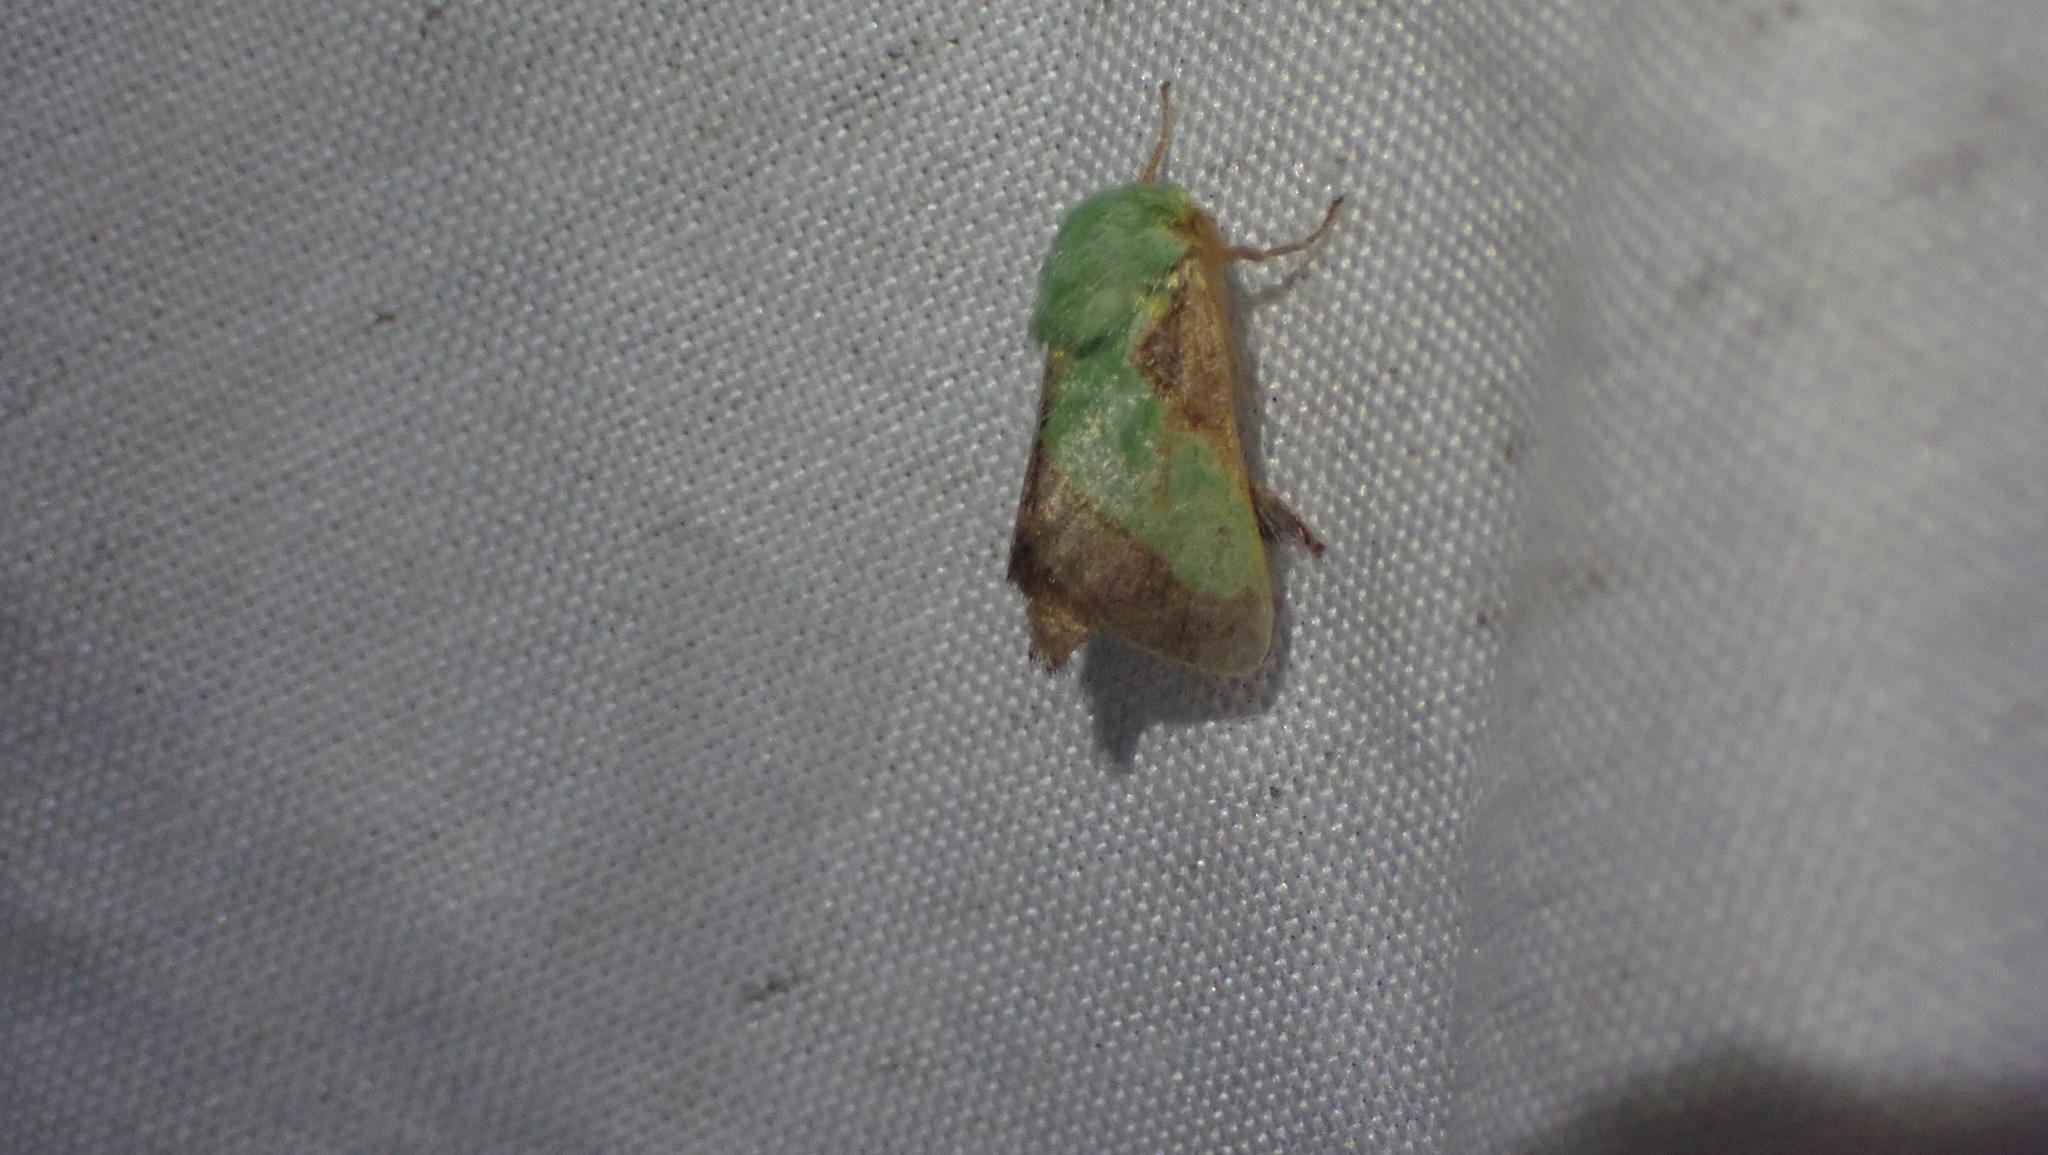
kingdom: Animalia
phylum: Arthropoda
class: Insecta
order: Lepidoptera
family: Limacodidae
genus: Parasa
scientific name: Parasa chloris
